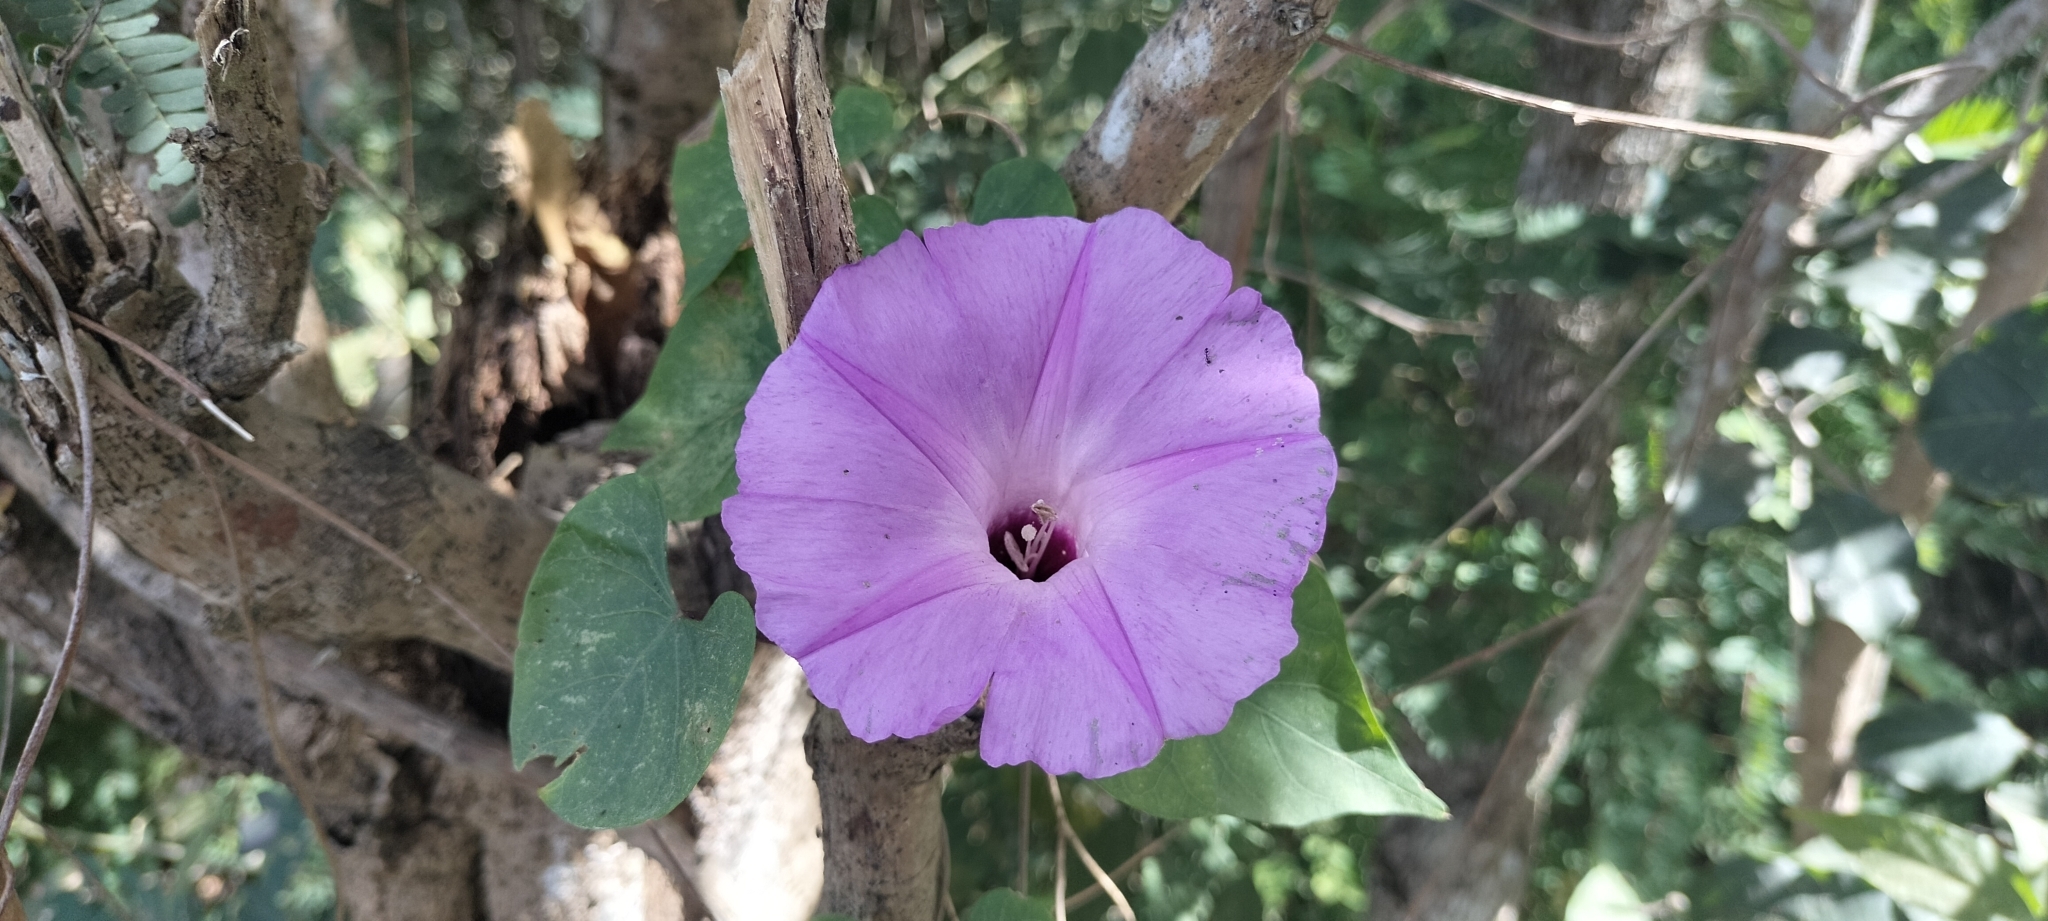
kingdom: Plantae
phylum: Tracheophyta
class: Magnoliopsida
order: Solanales
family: Convolvulaceae
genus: Ipomoea
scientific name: Ipomoea crinicalyx
